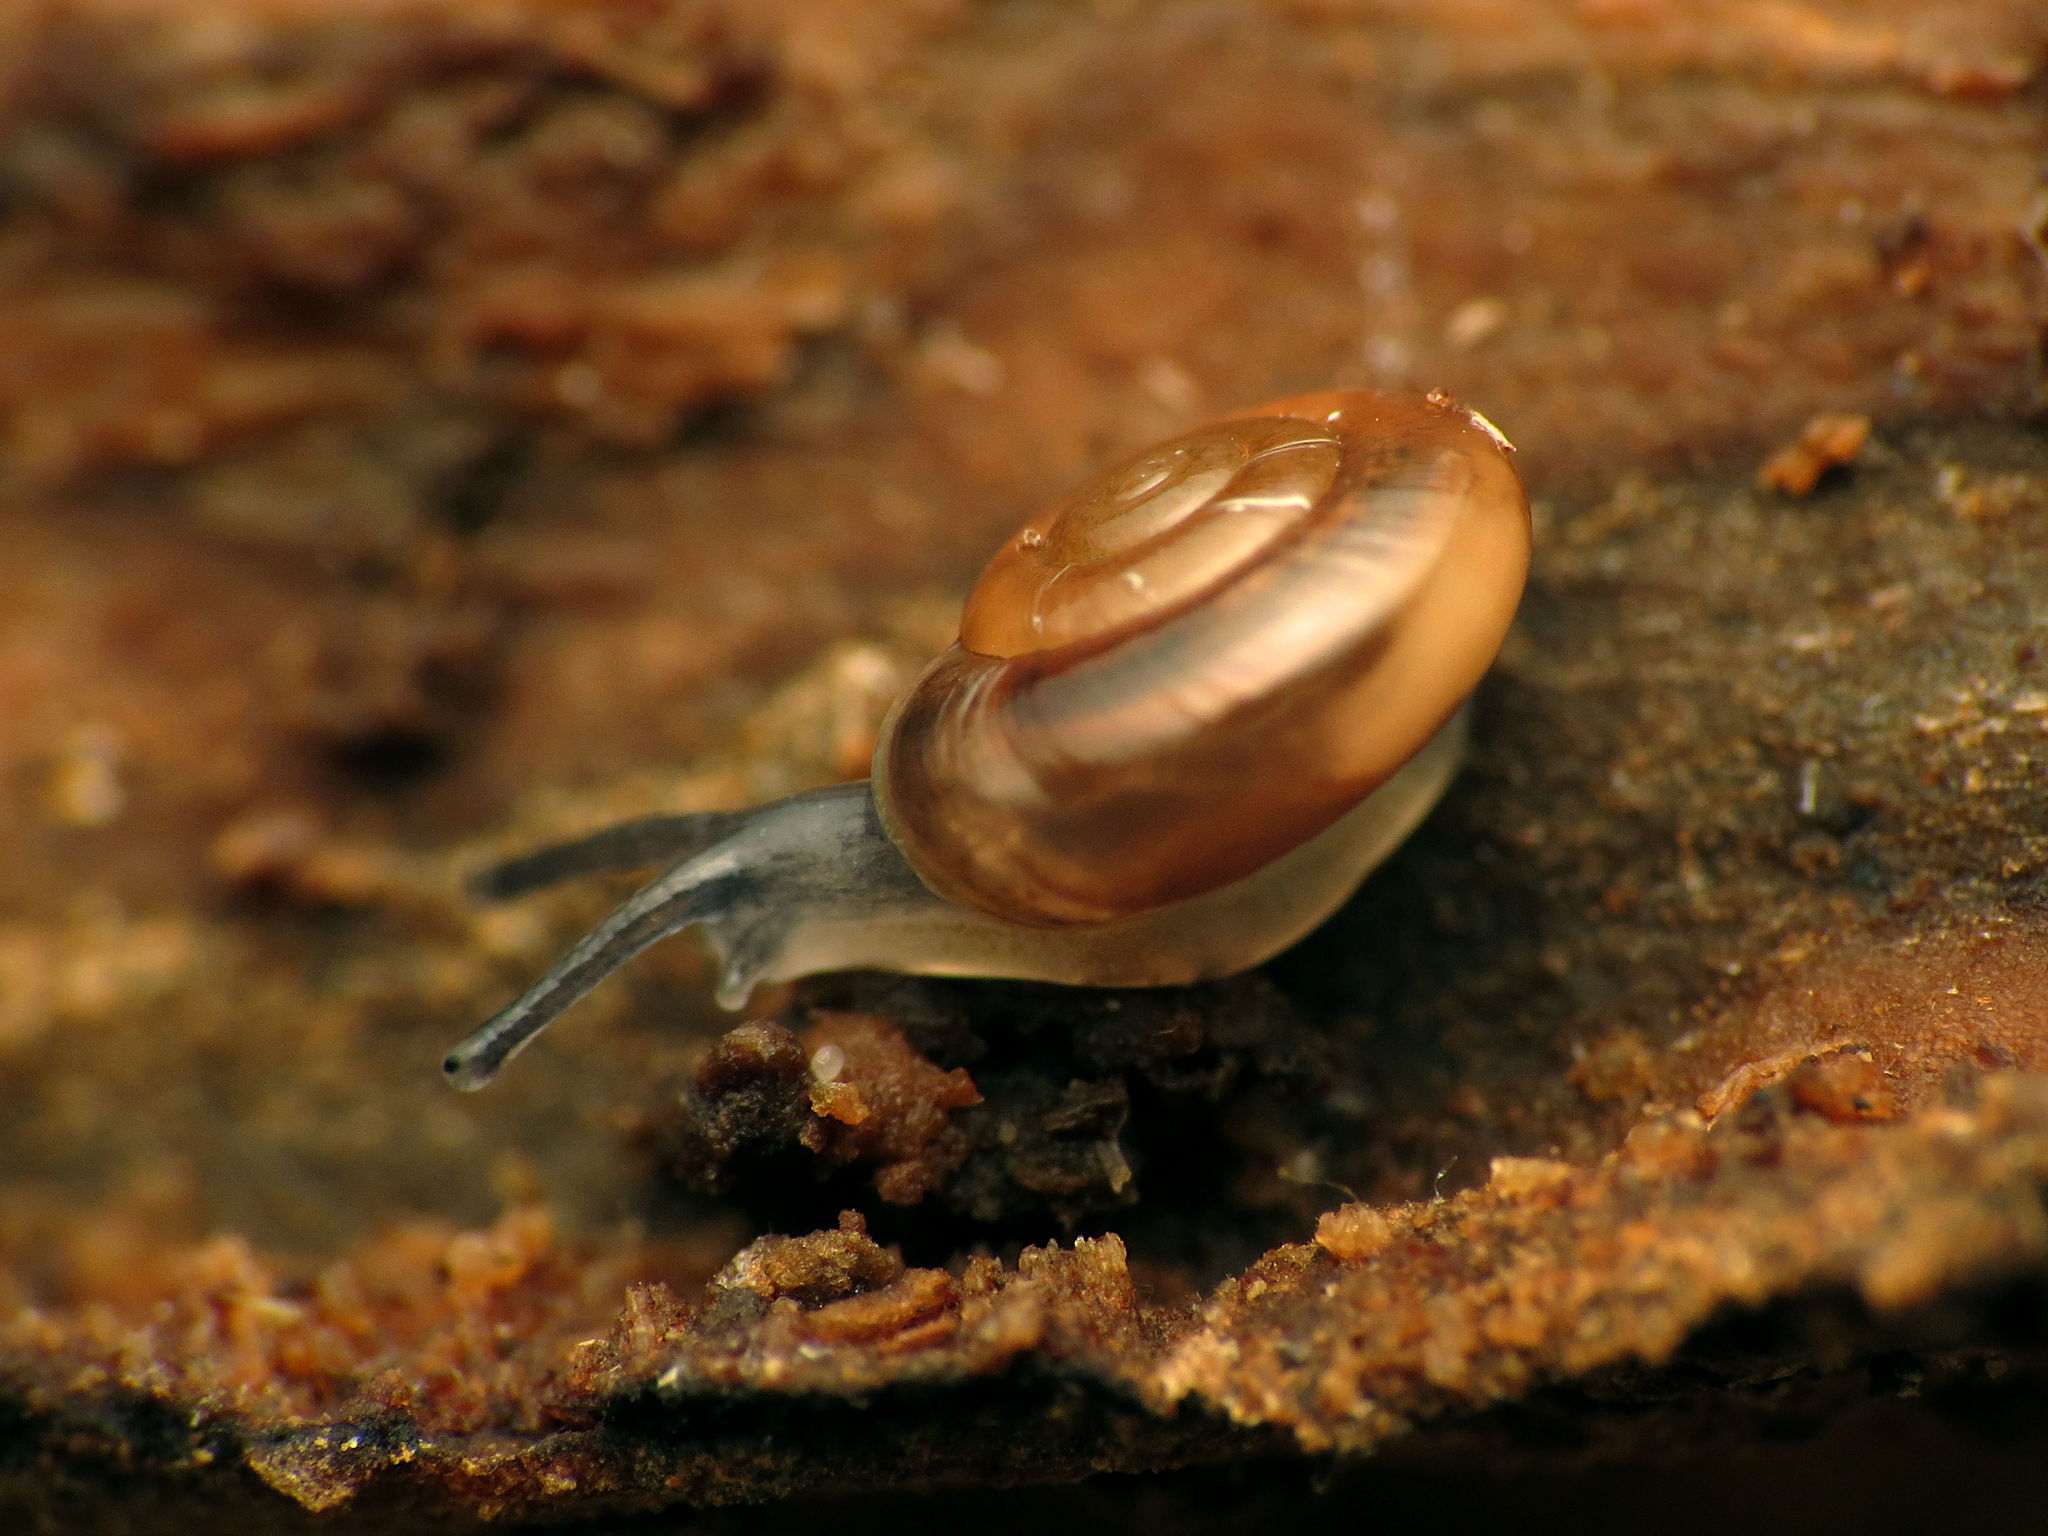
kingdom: Animalia
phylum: Mollusca
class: Gastropoda
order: Stylommatophora
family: Gastrodontidae
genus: Zonitoides
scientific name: Zonitoides arboreus
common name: Quick gloss
